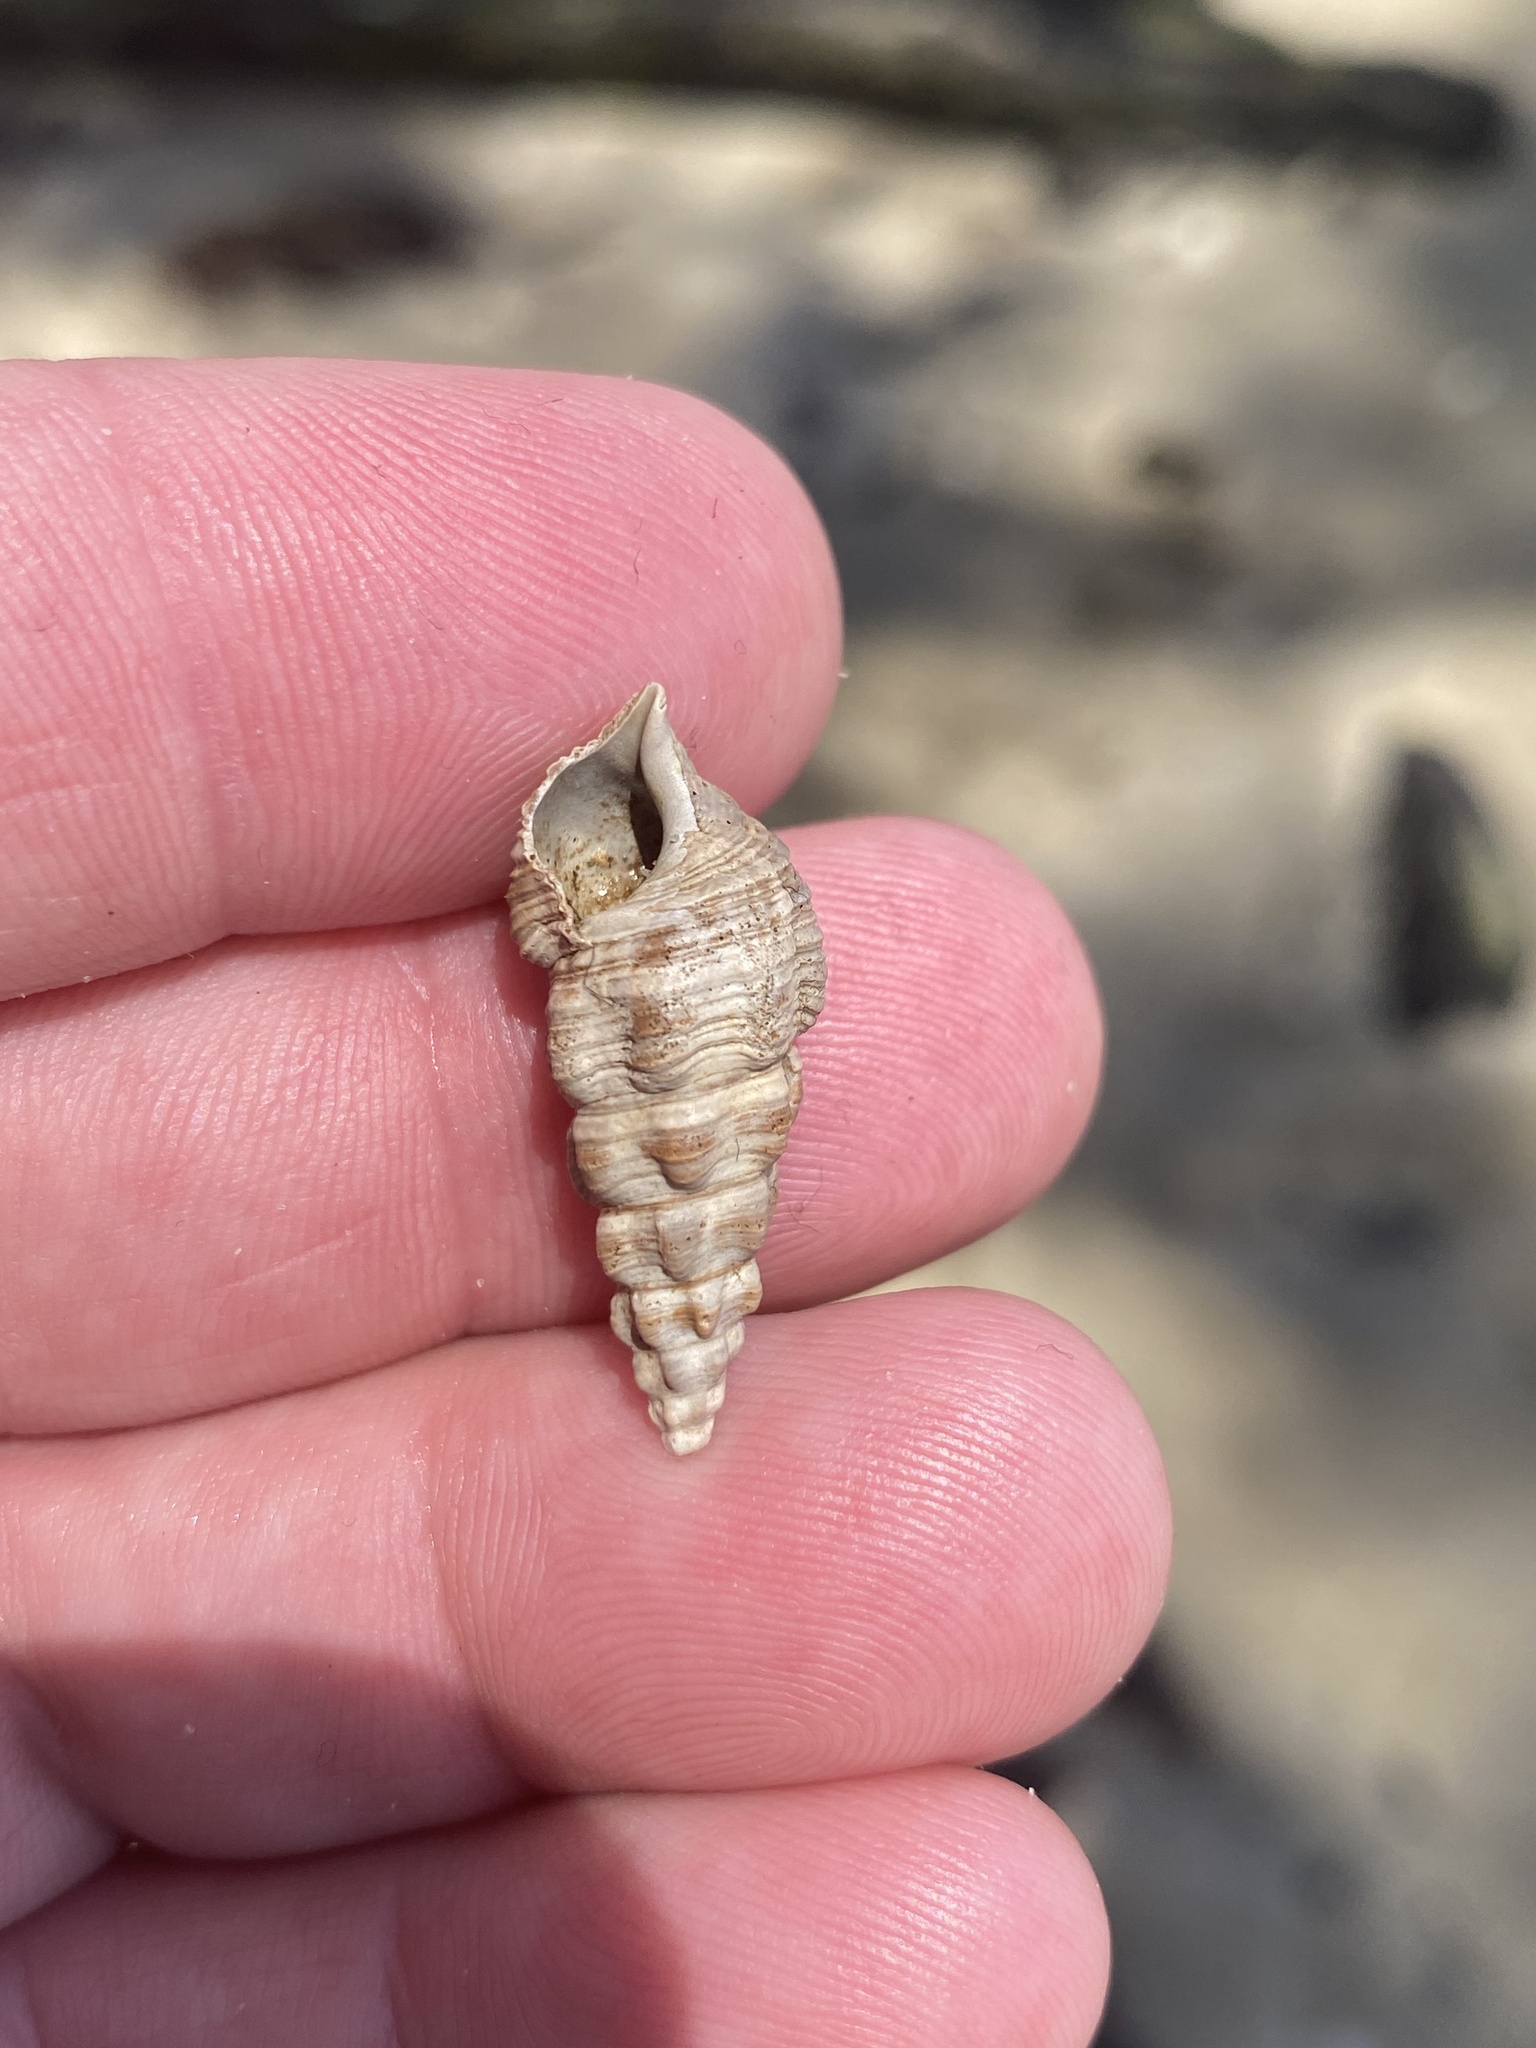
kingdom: Animalia
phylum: Mollusca
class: Gastropoda
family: Batillariidae
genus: Batillaria
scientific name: Batillaria australis
